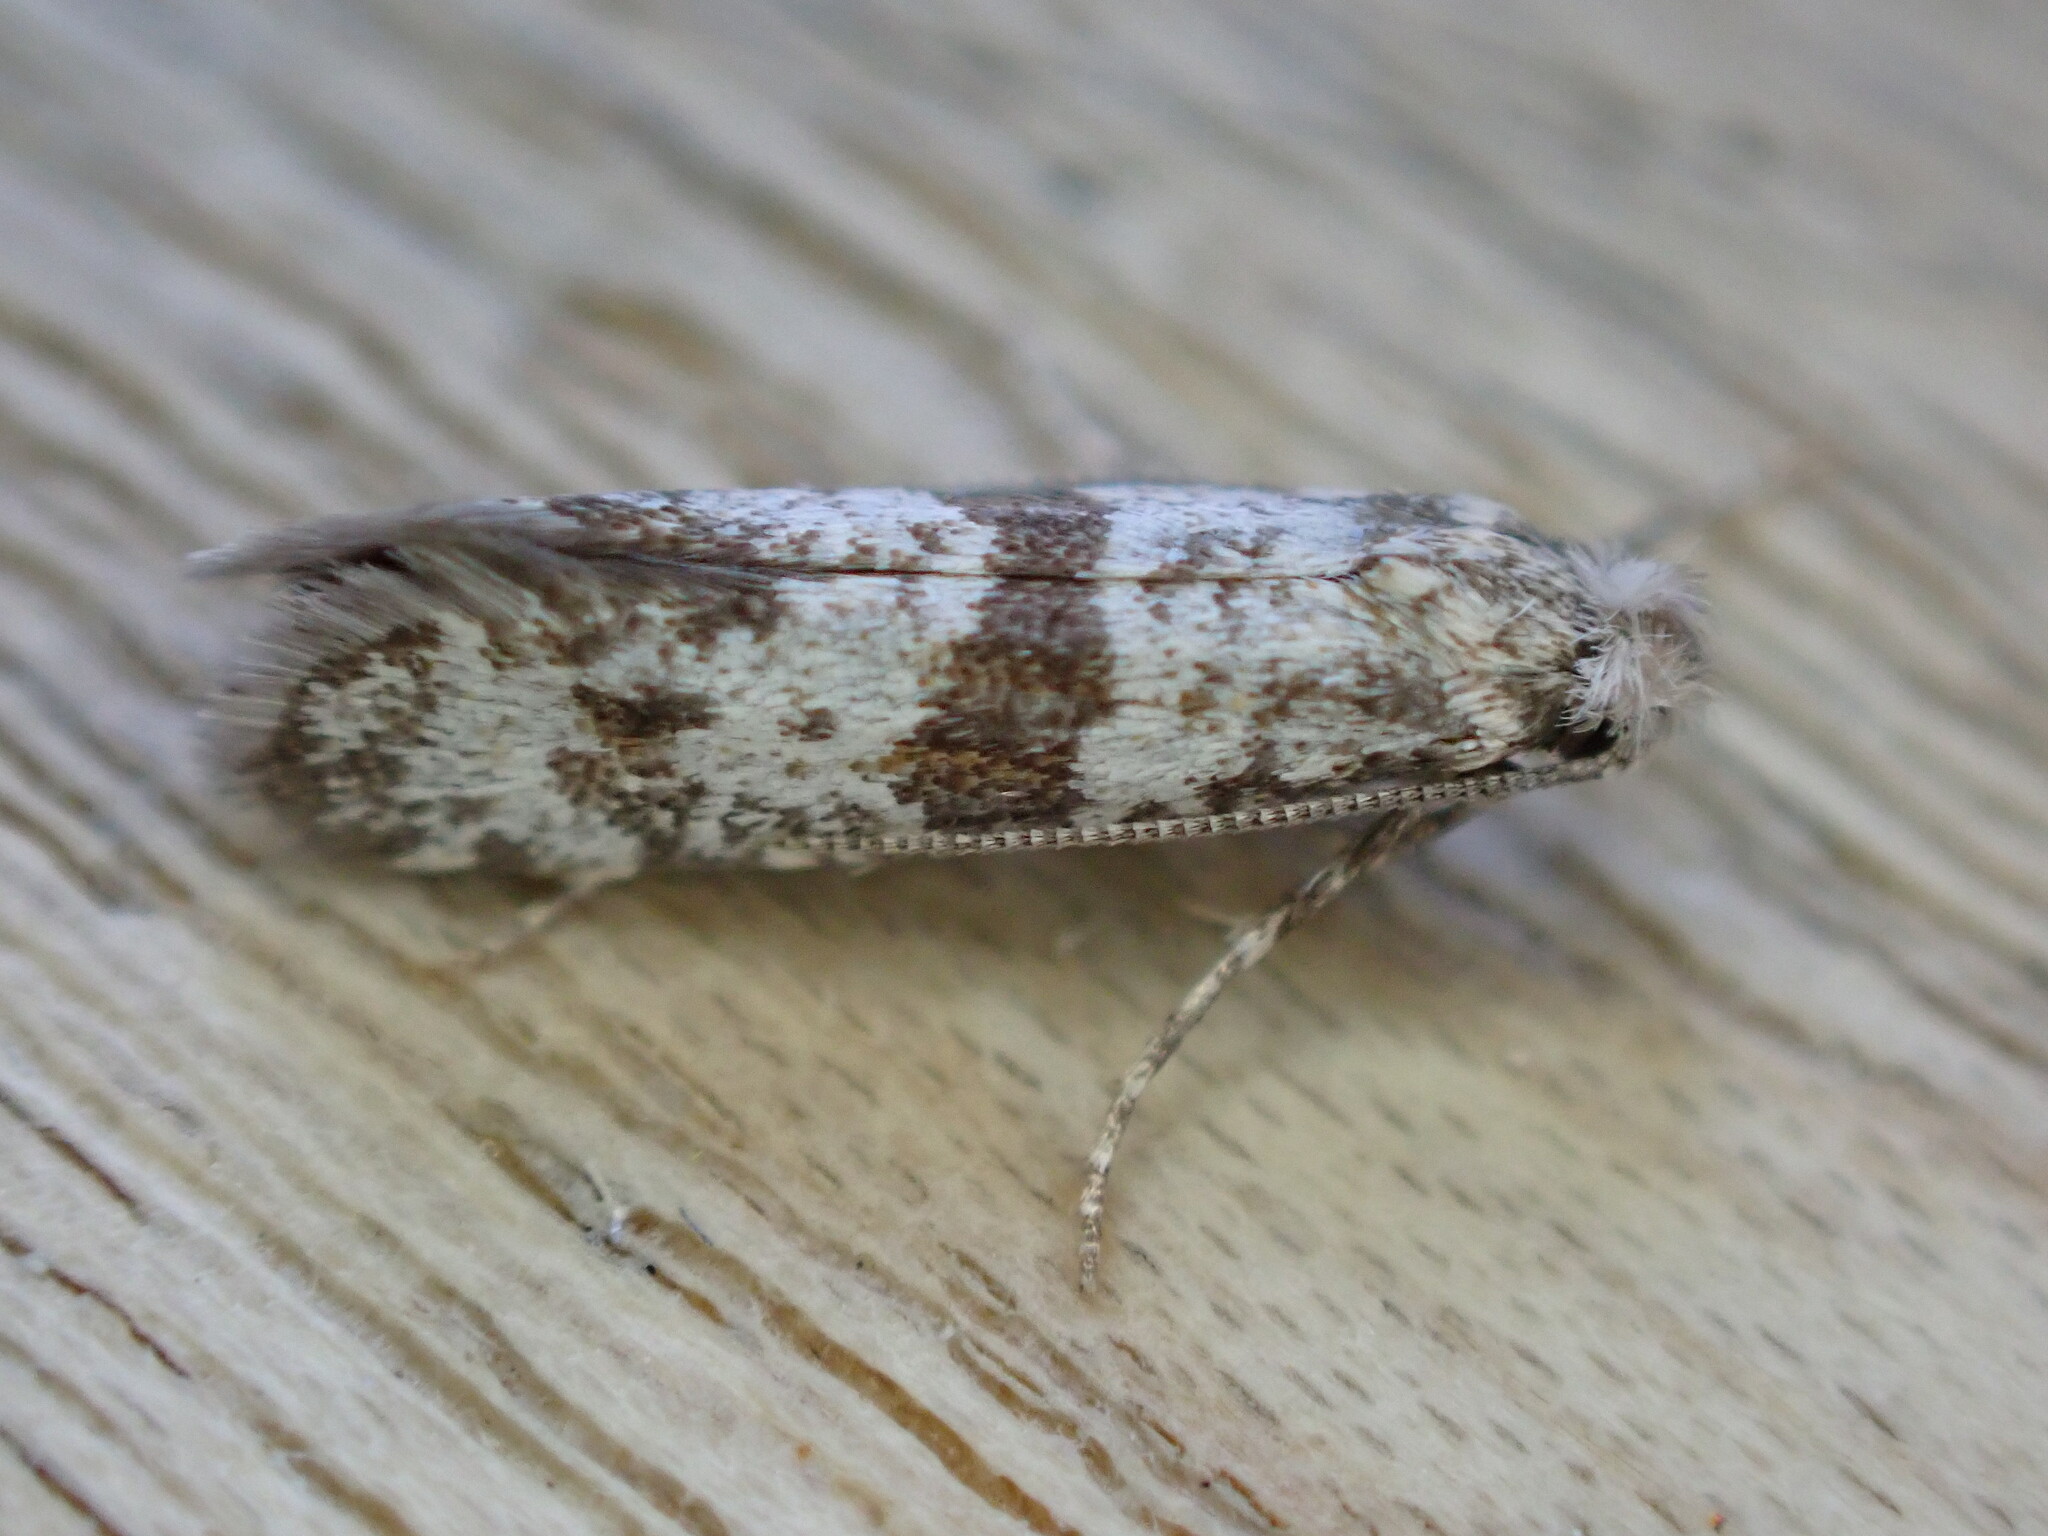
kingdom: Animalia
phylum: Arthropoda
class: Insecta
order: Lepidoptera
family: Yponomeutidae
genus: Scythropia
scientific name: Scythropia crataegella
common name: Hawthorn moth
